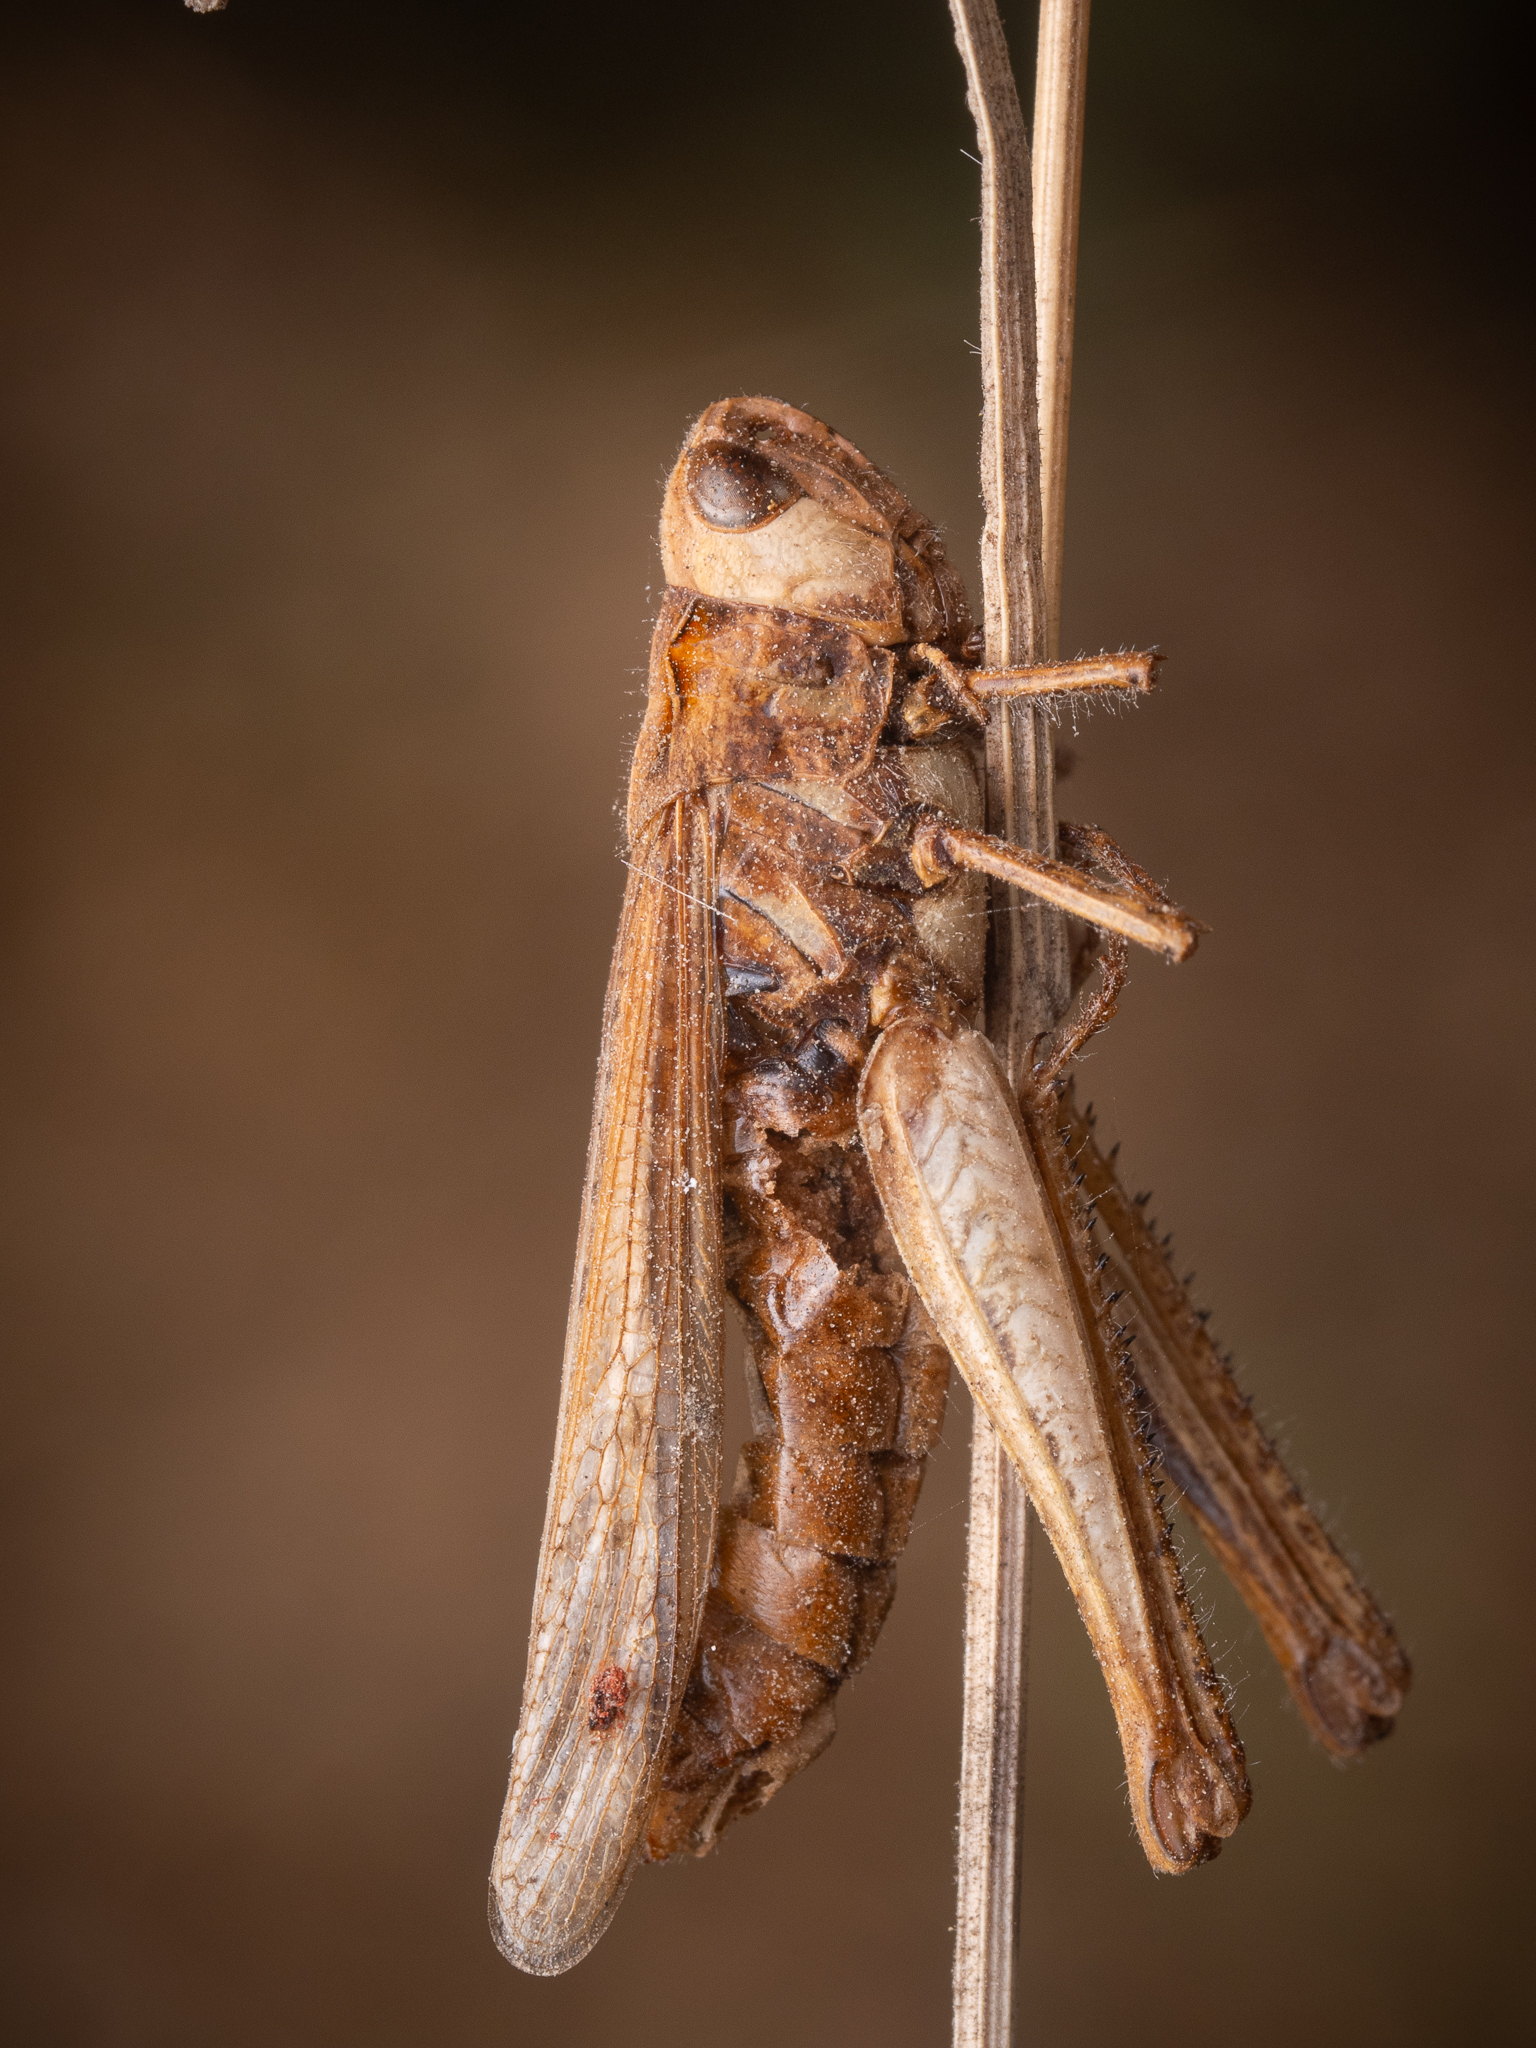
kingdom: Fungi
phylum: Entomophthoromycota
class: Entomophthoromycetes
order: Entomophthorales
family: Entomophthoraceae
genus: Entomophaga
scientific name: Entomophaga grylli
